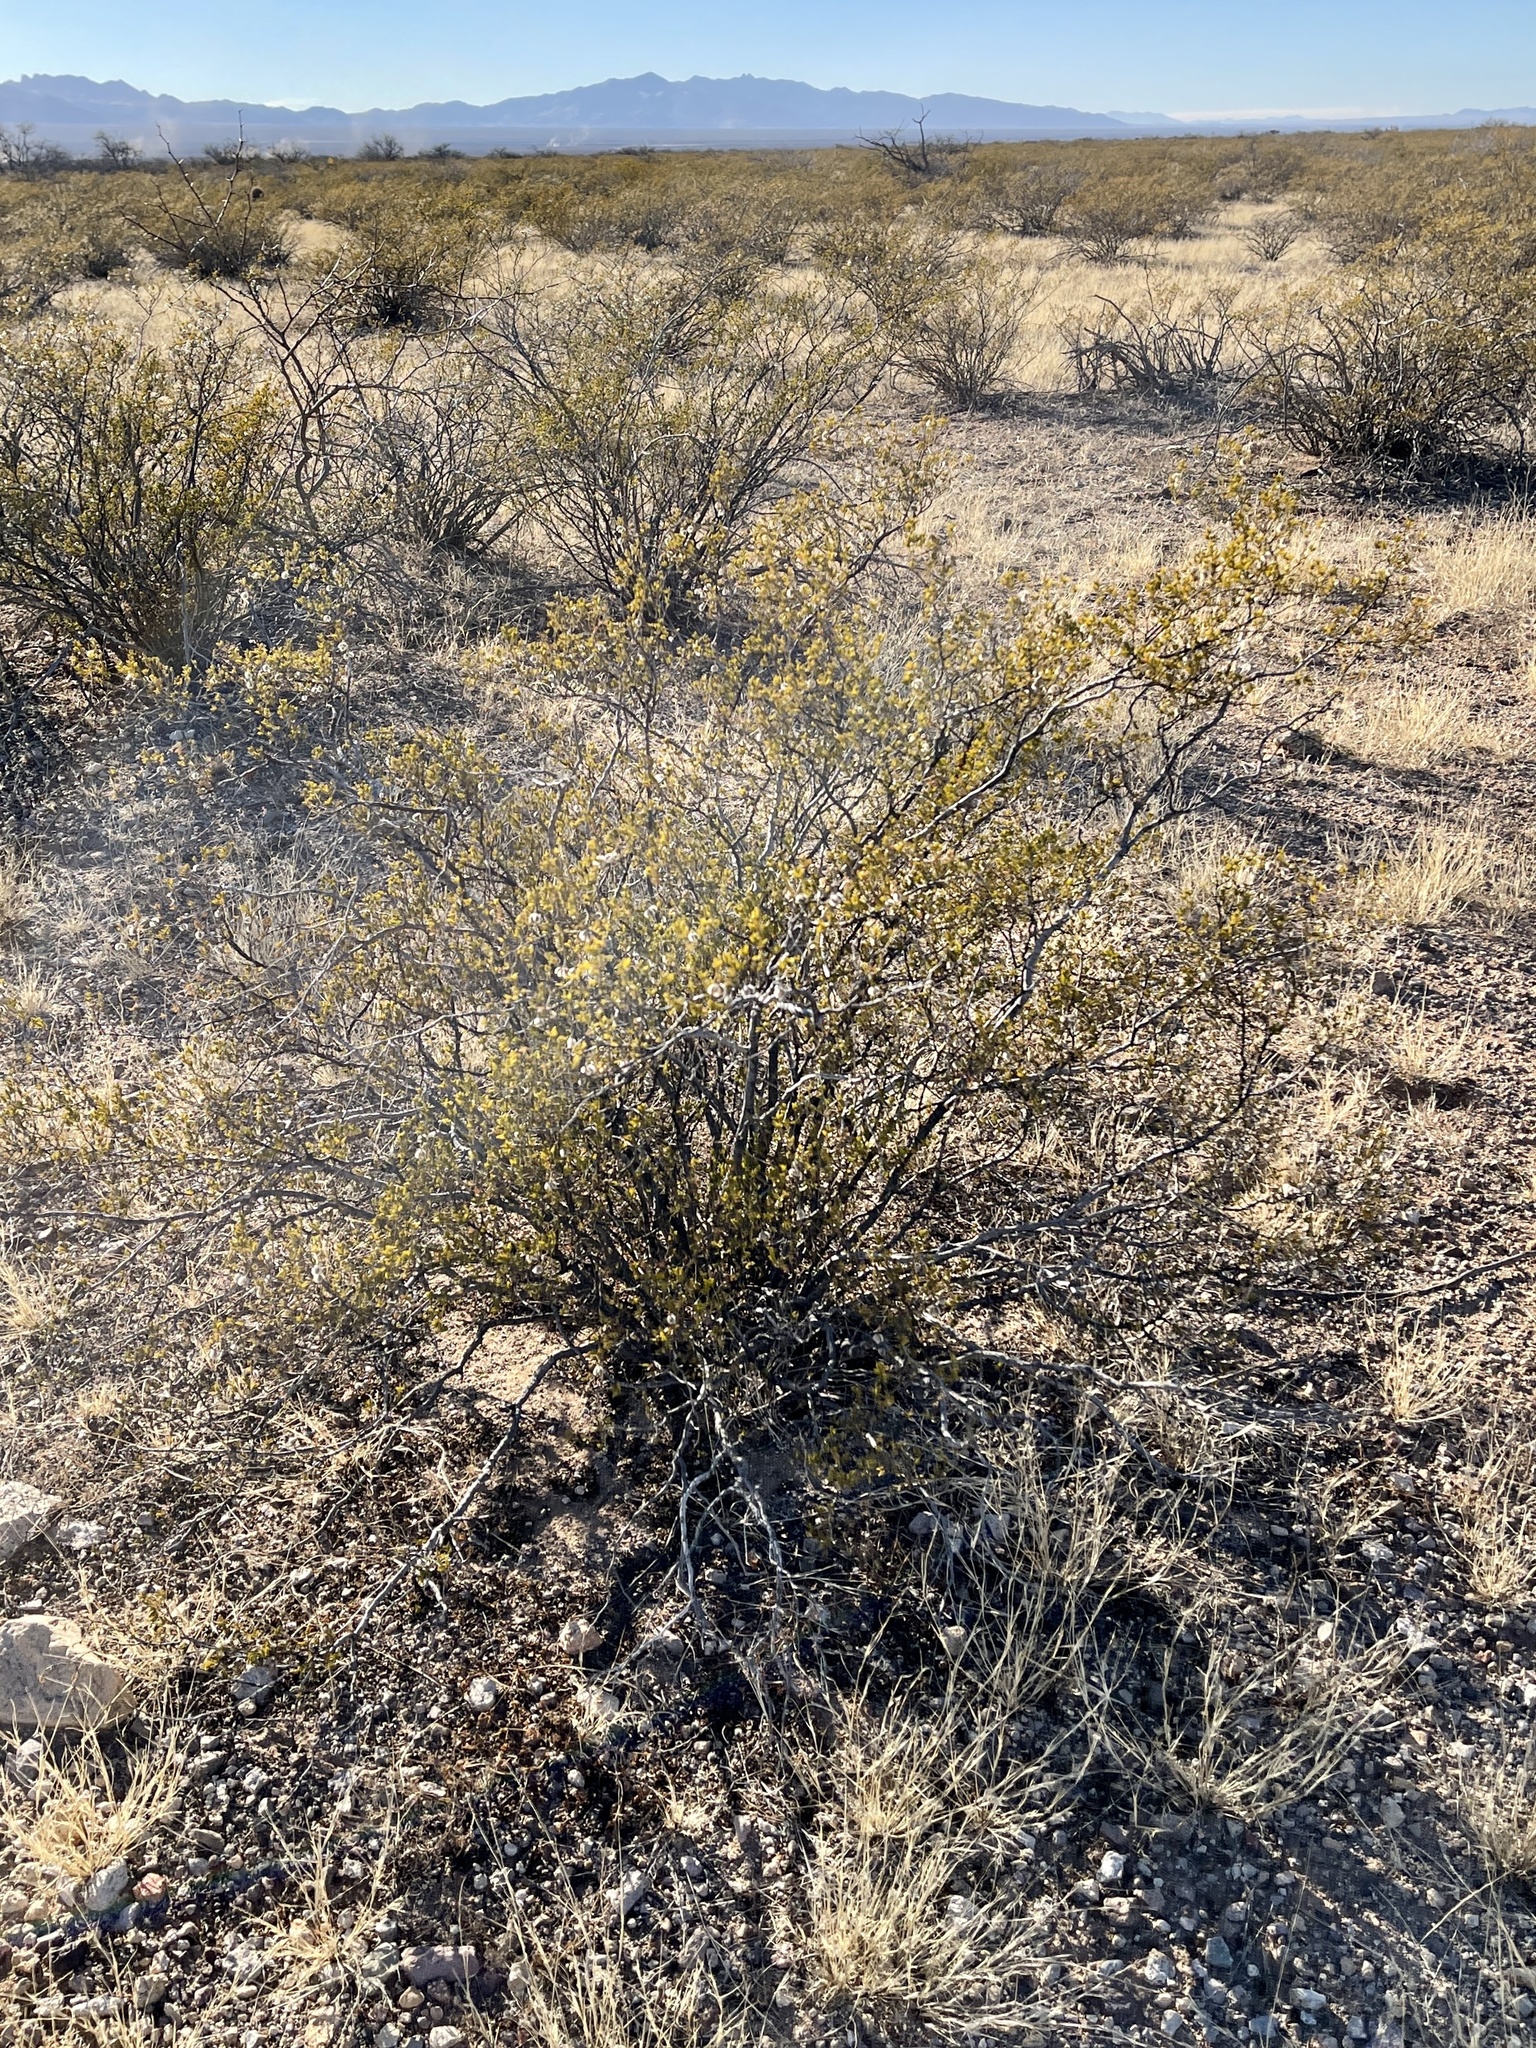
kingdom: Plantae
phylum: Tracheophyta
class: Magnoliopsida
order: Zygophyllales
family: Zygophyllaceae
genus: Larrea
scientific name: Larrea tridentata
